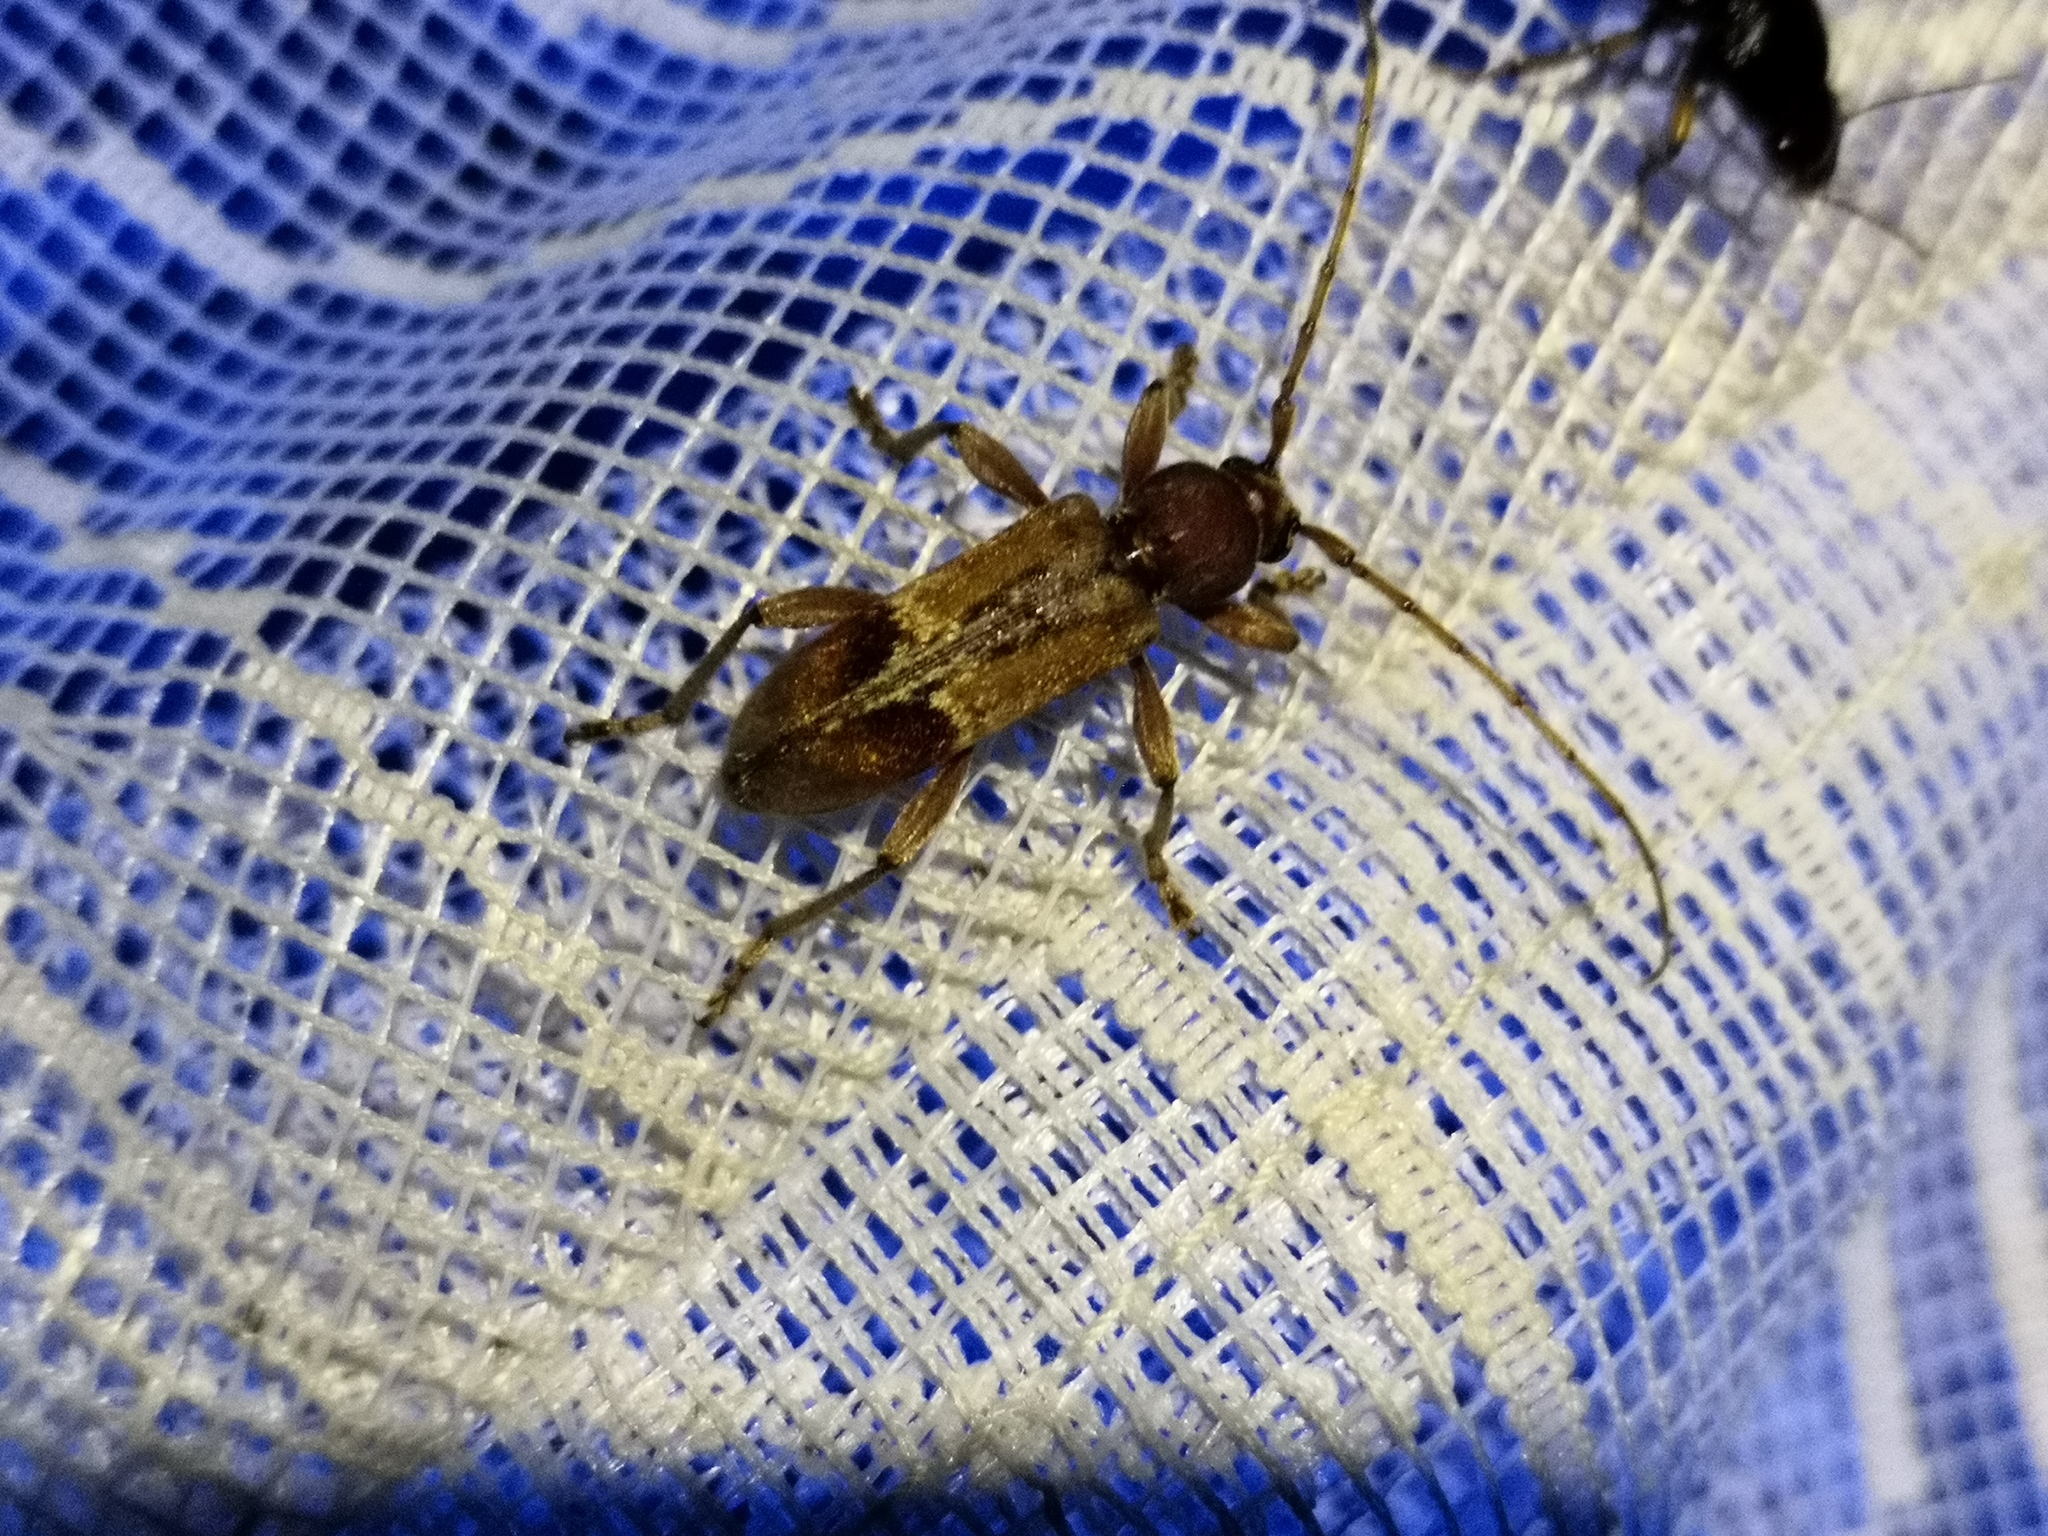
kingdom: Animalia
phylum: Arthropoda
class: Insecta
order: Coleoptera
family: Cerambycidae
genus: Trichoferus
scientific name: Trichoferus pallidus
